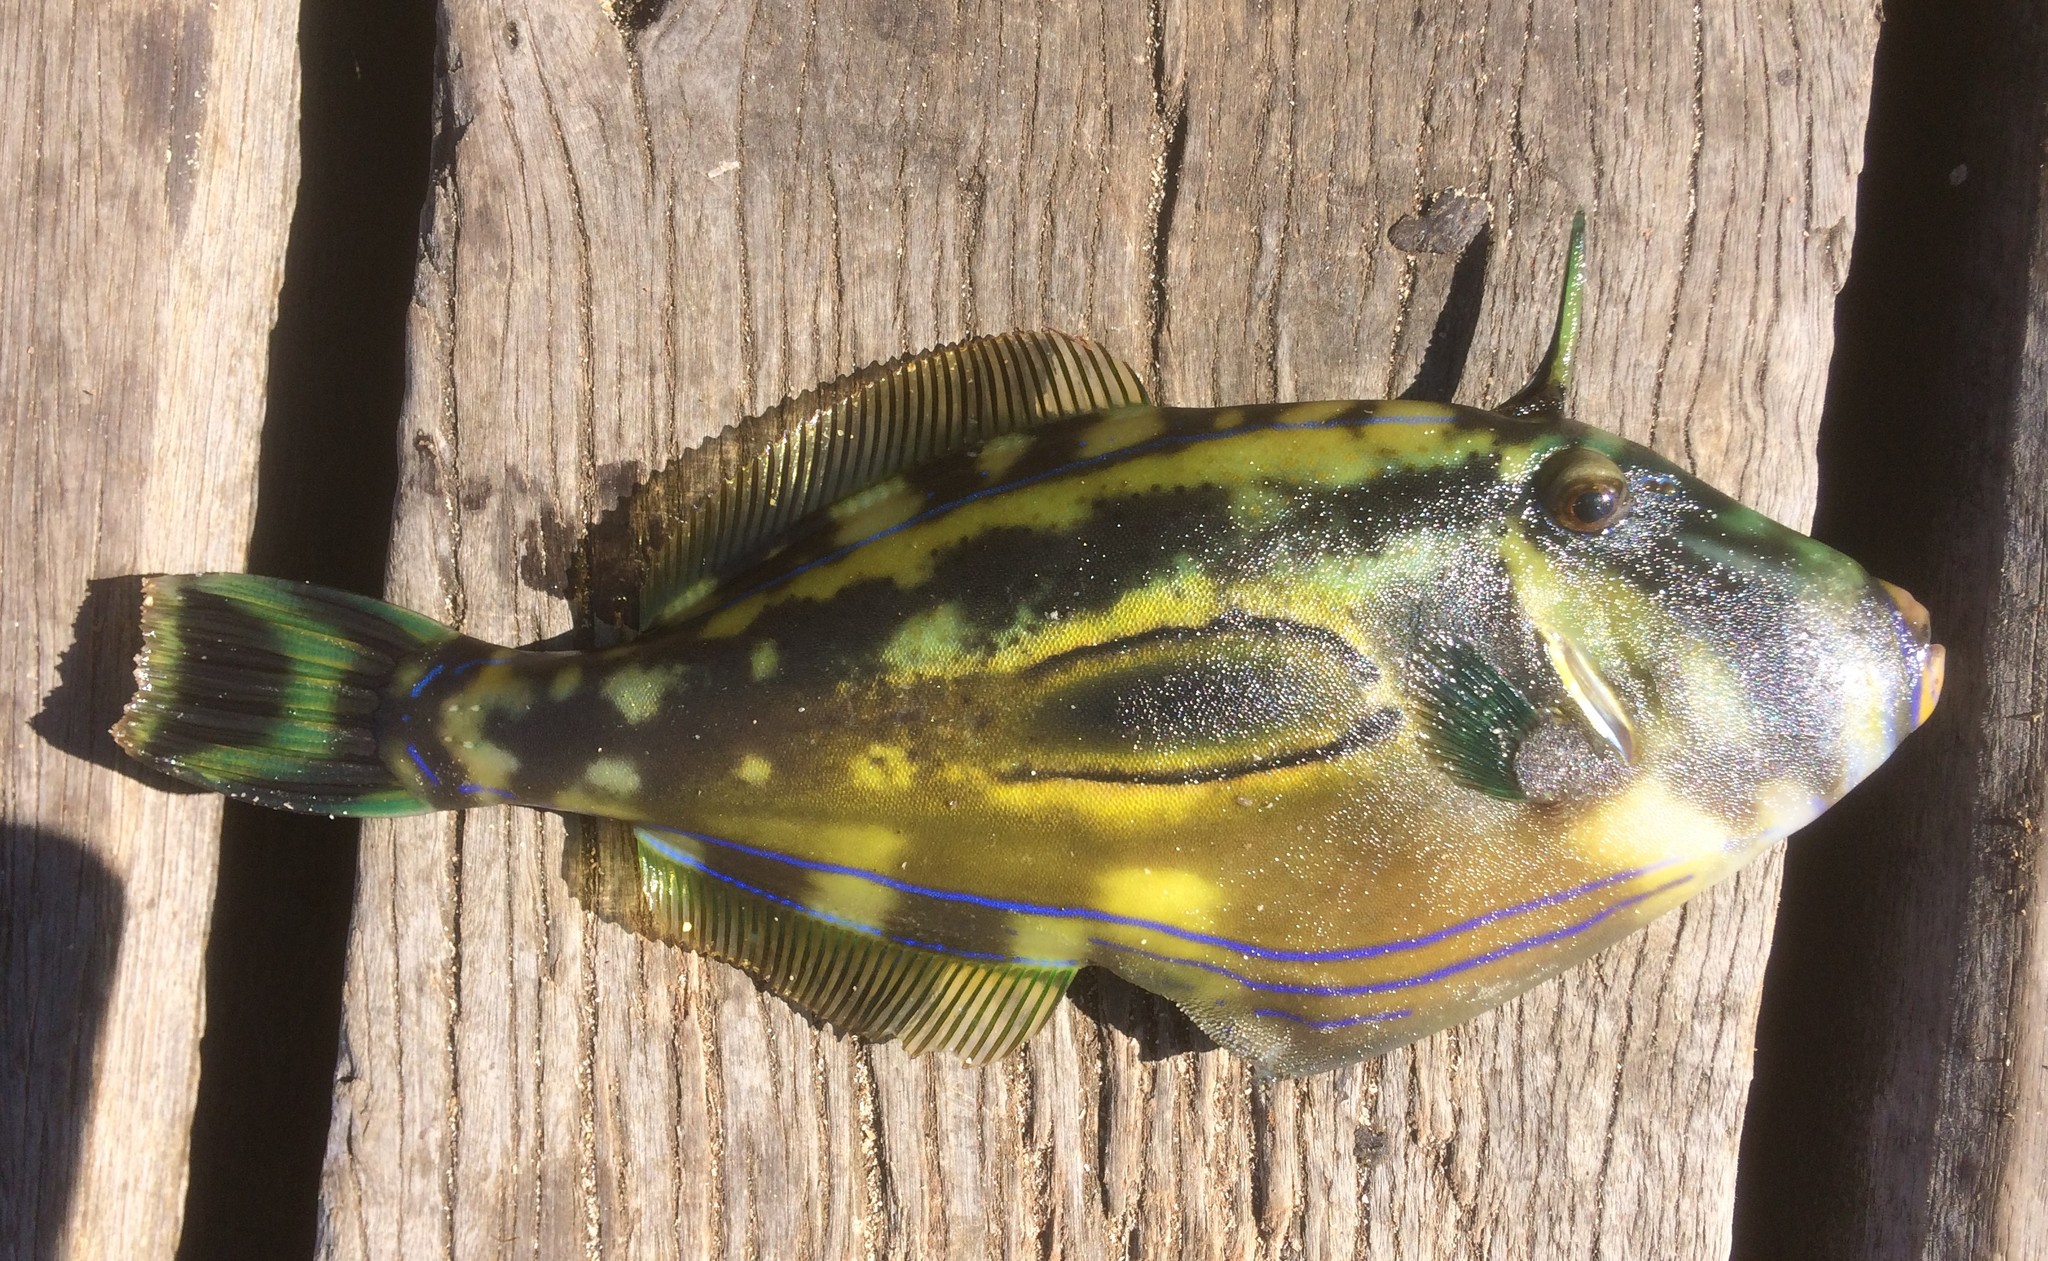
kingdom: Animalia
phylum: Chordata
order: Tetraodontiformes
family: Monacanthidae
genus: Meuschenia
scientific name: Meuschenia hippocrepis
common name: Horse-shoe leatherjacket
